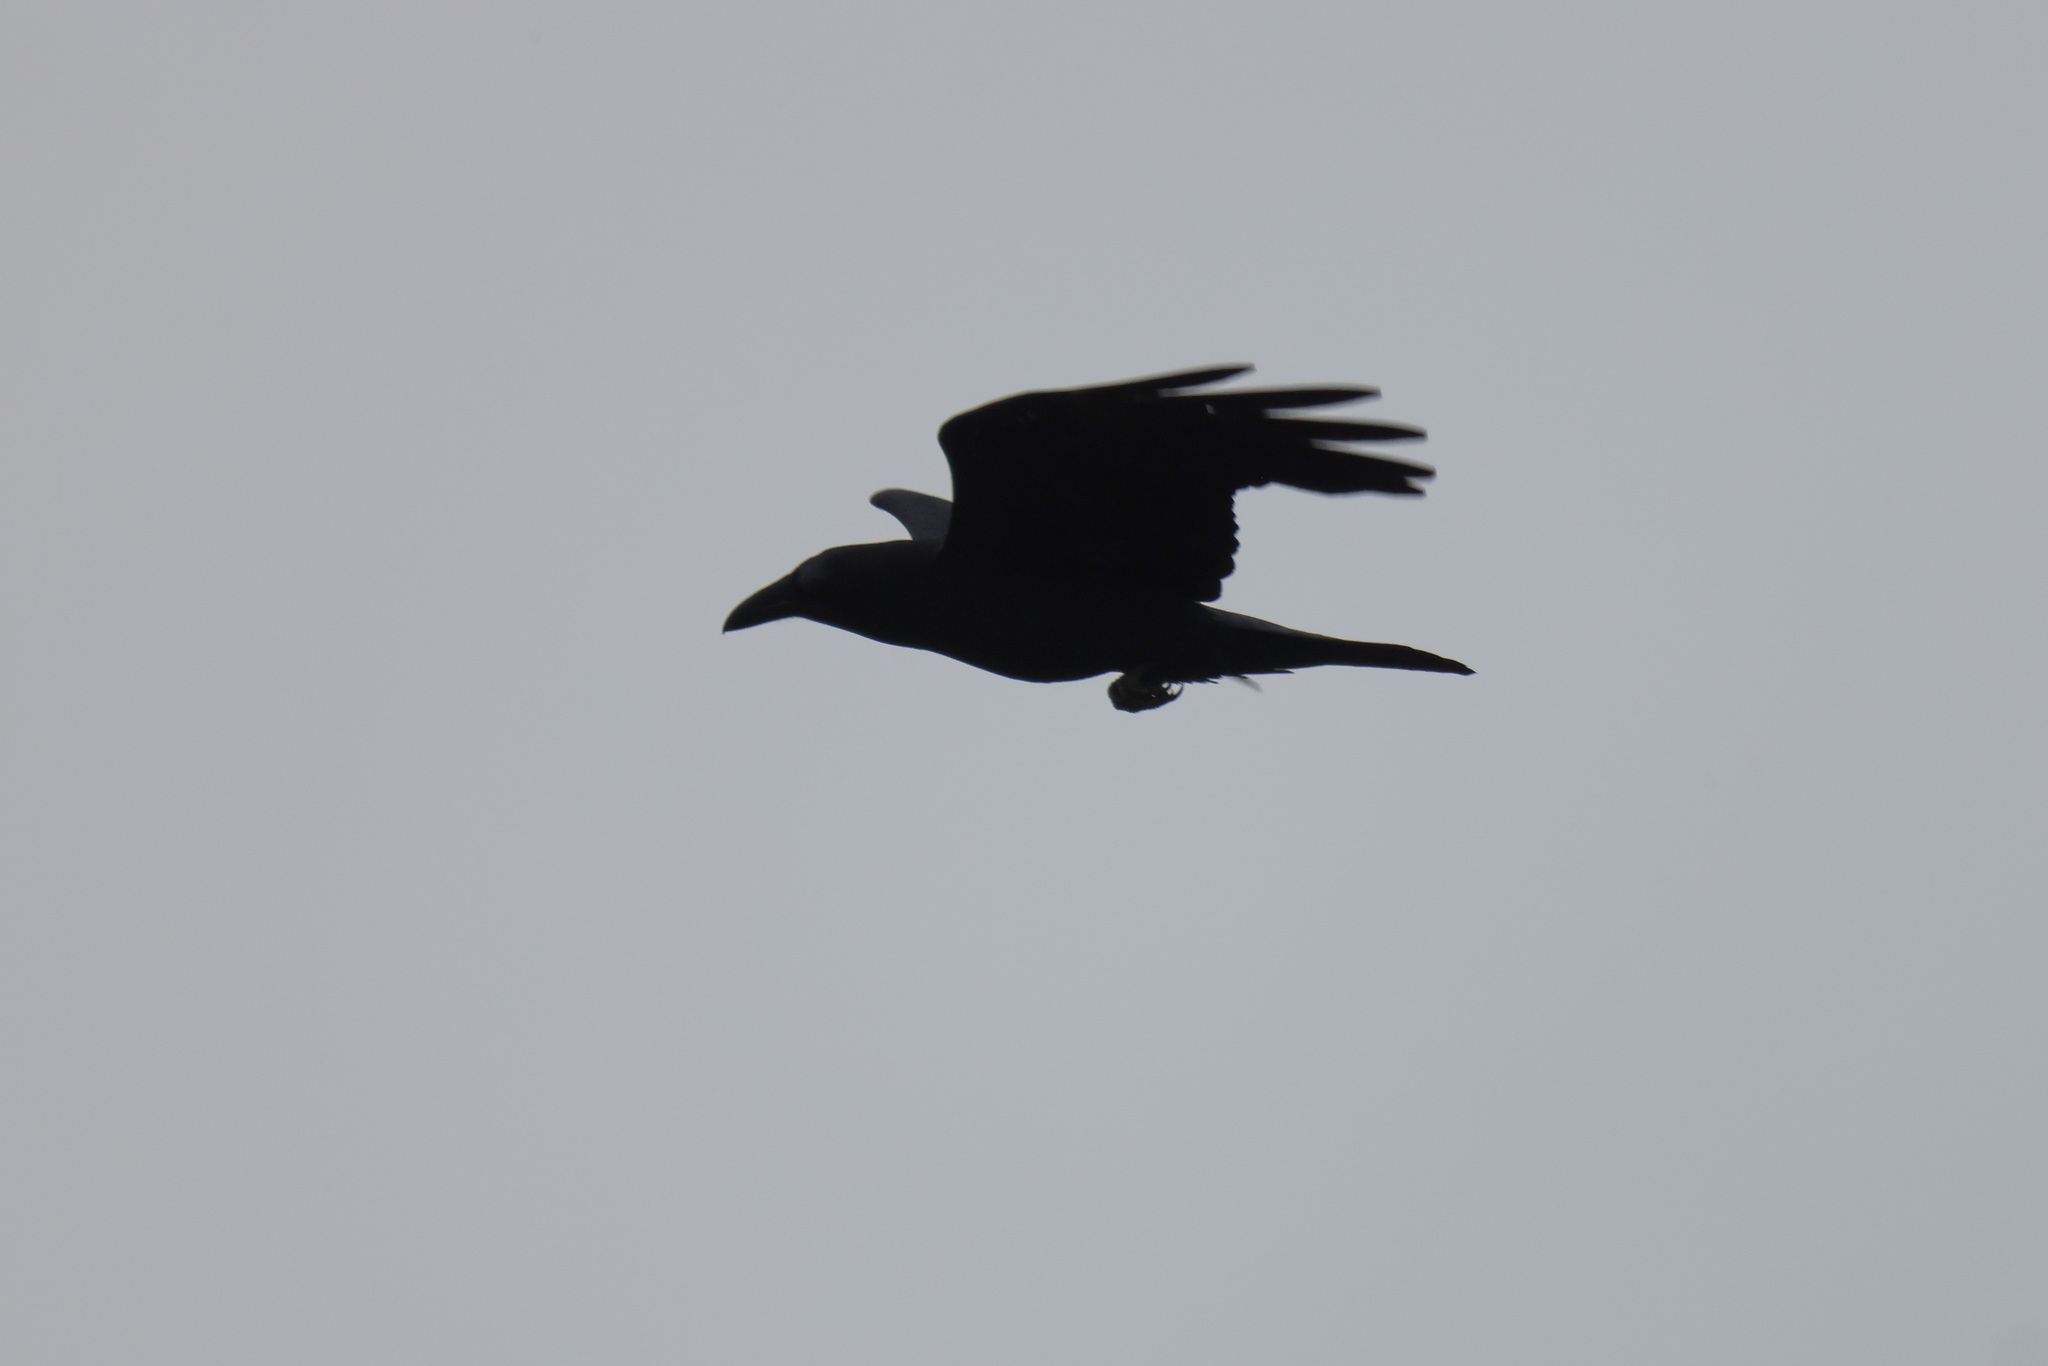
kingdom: Animalia
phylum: Chordata
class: Aves
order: Passeriformes
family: Corvidae
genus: Corvus
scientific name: Corvus corax
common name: Common raven
